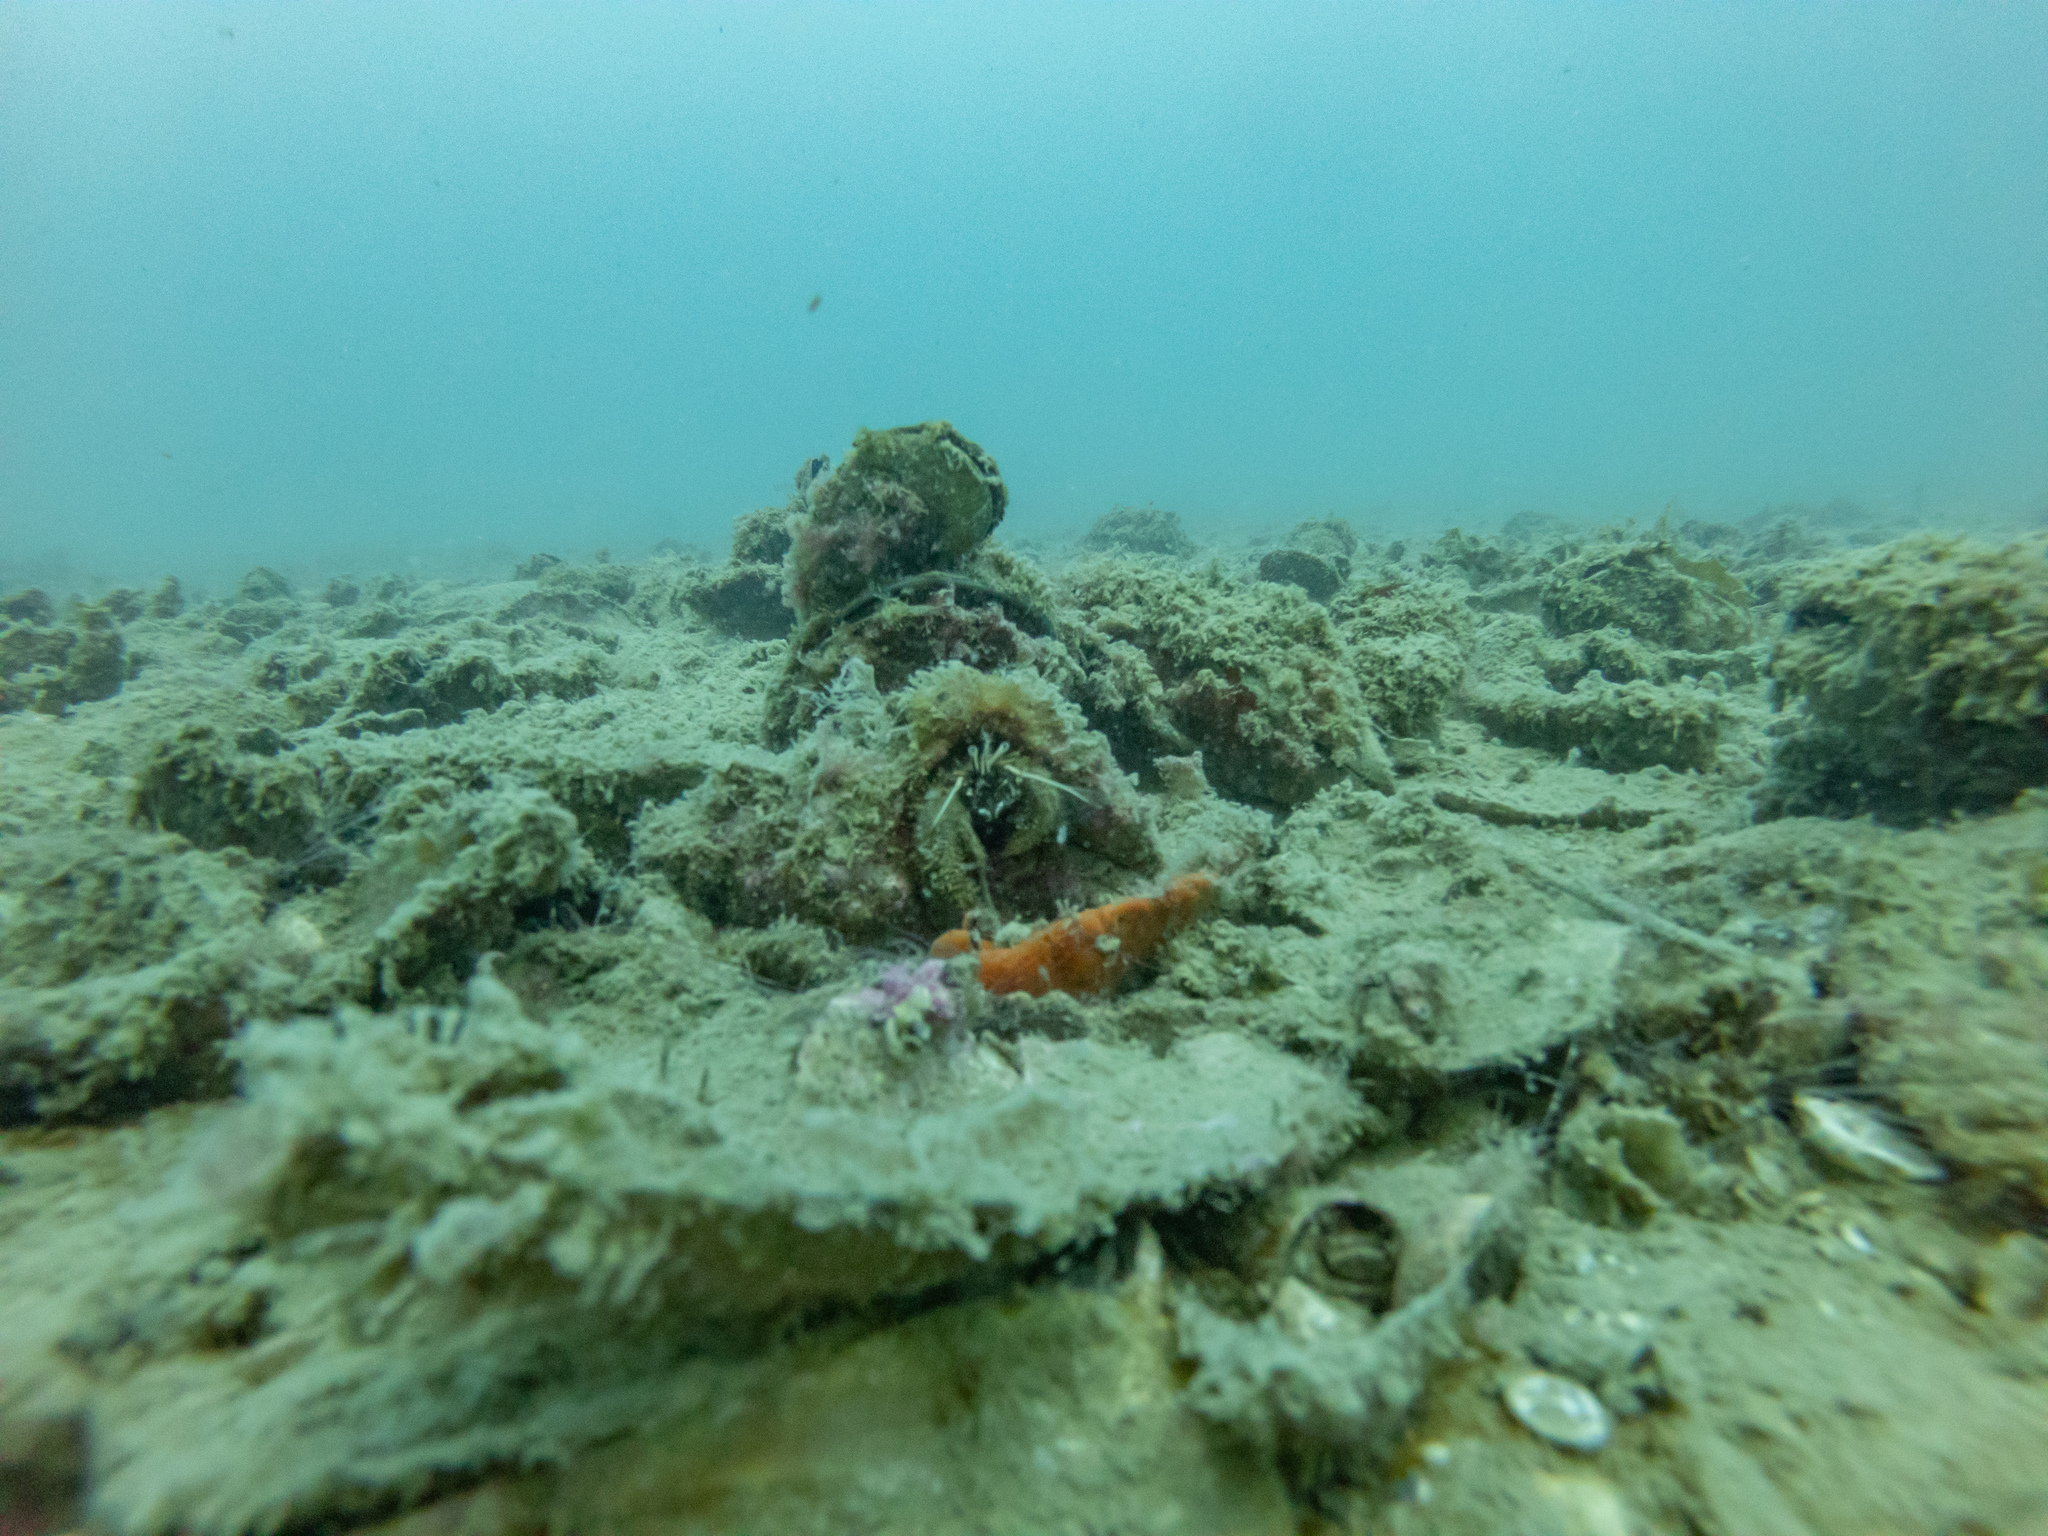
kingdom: Animalia
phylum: Arthropoda
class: Malacostraca
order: Decapoda
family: Diogenidae
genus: Areopaguristes
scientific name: Areopaguristes setosus
